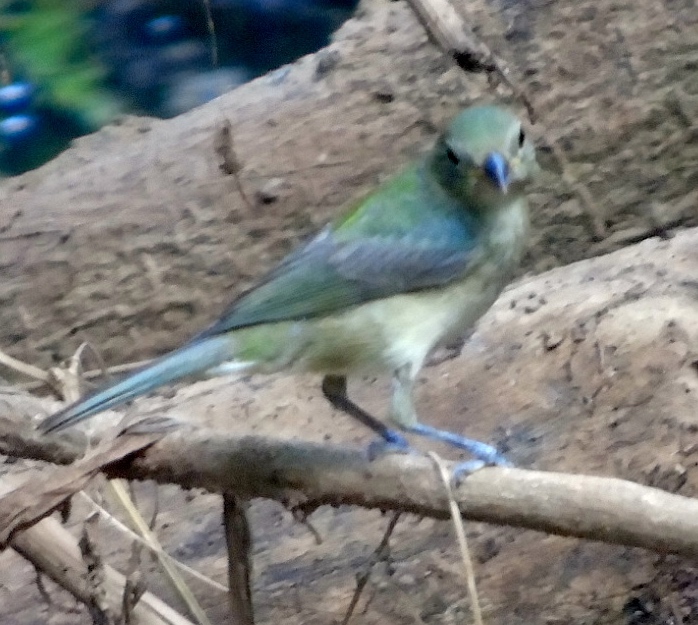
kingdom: Animalia
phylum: Chordata
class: Aves
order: Passeriformes
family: Cardinalidae
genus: Passerina
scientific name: Passerina ciris
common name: Painted bunting
